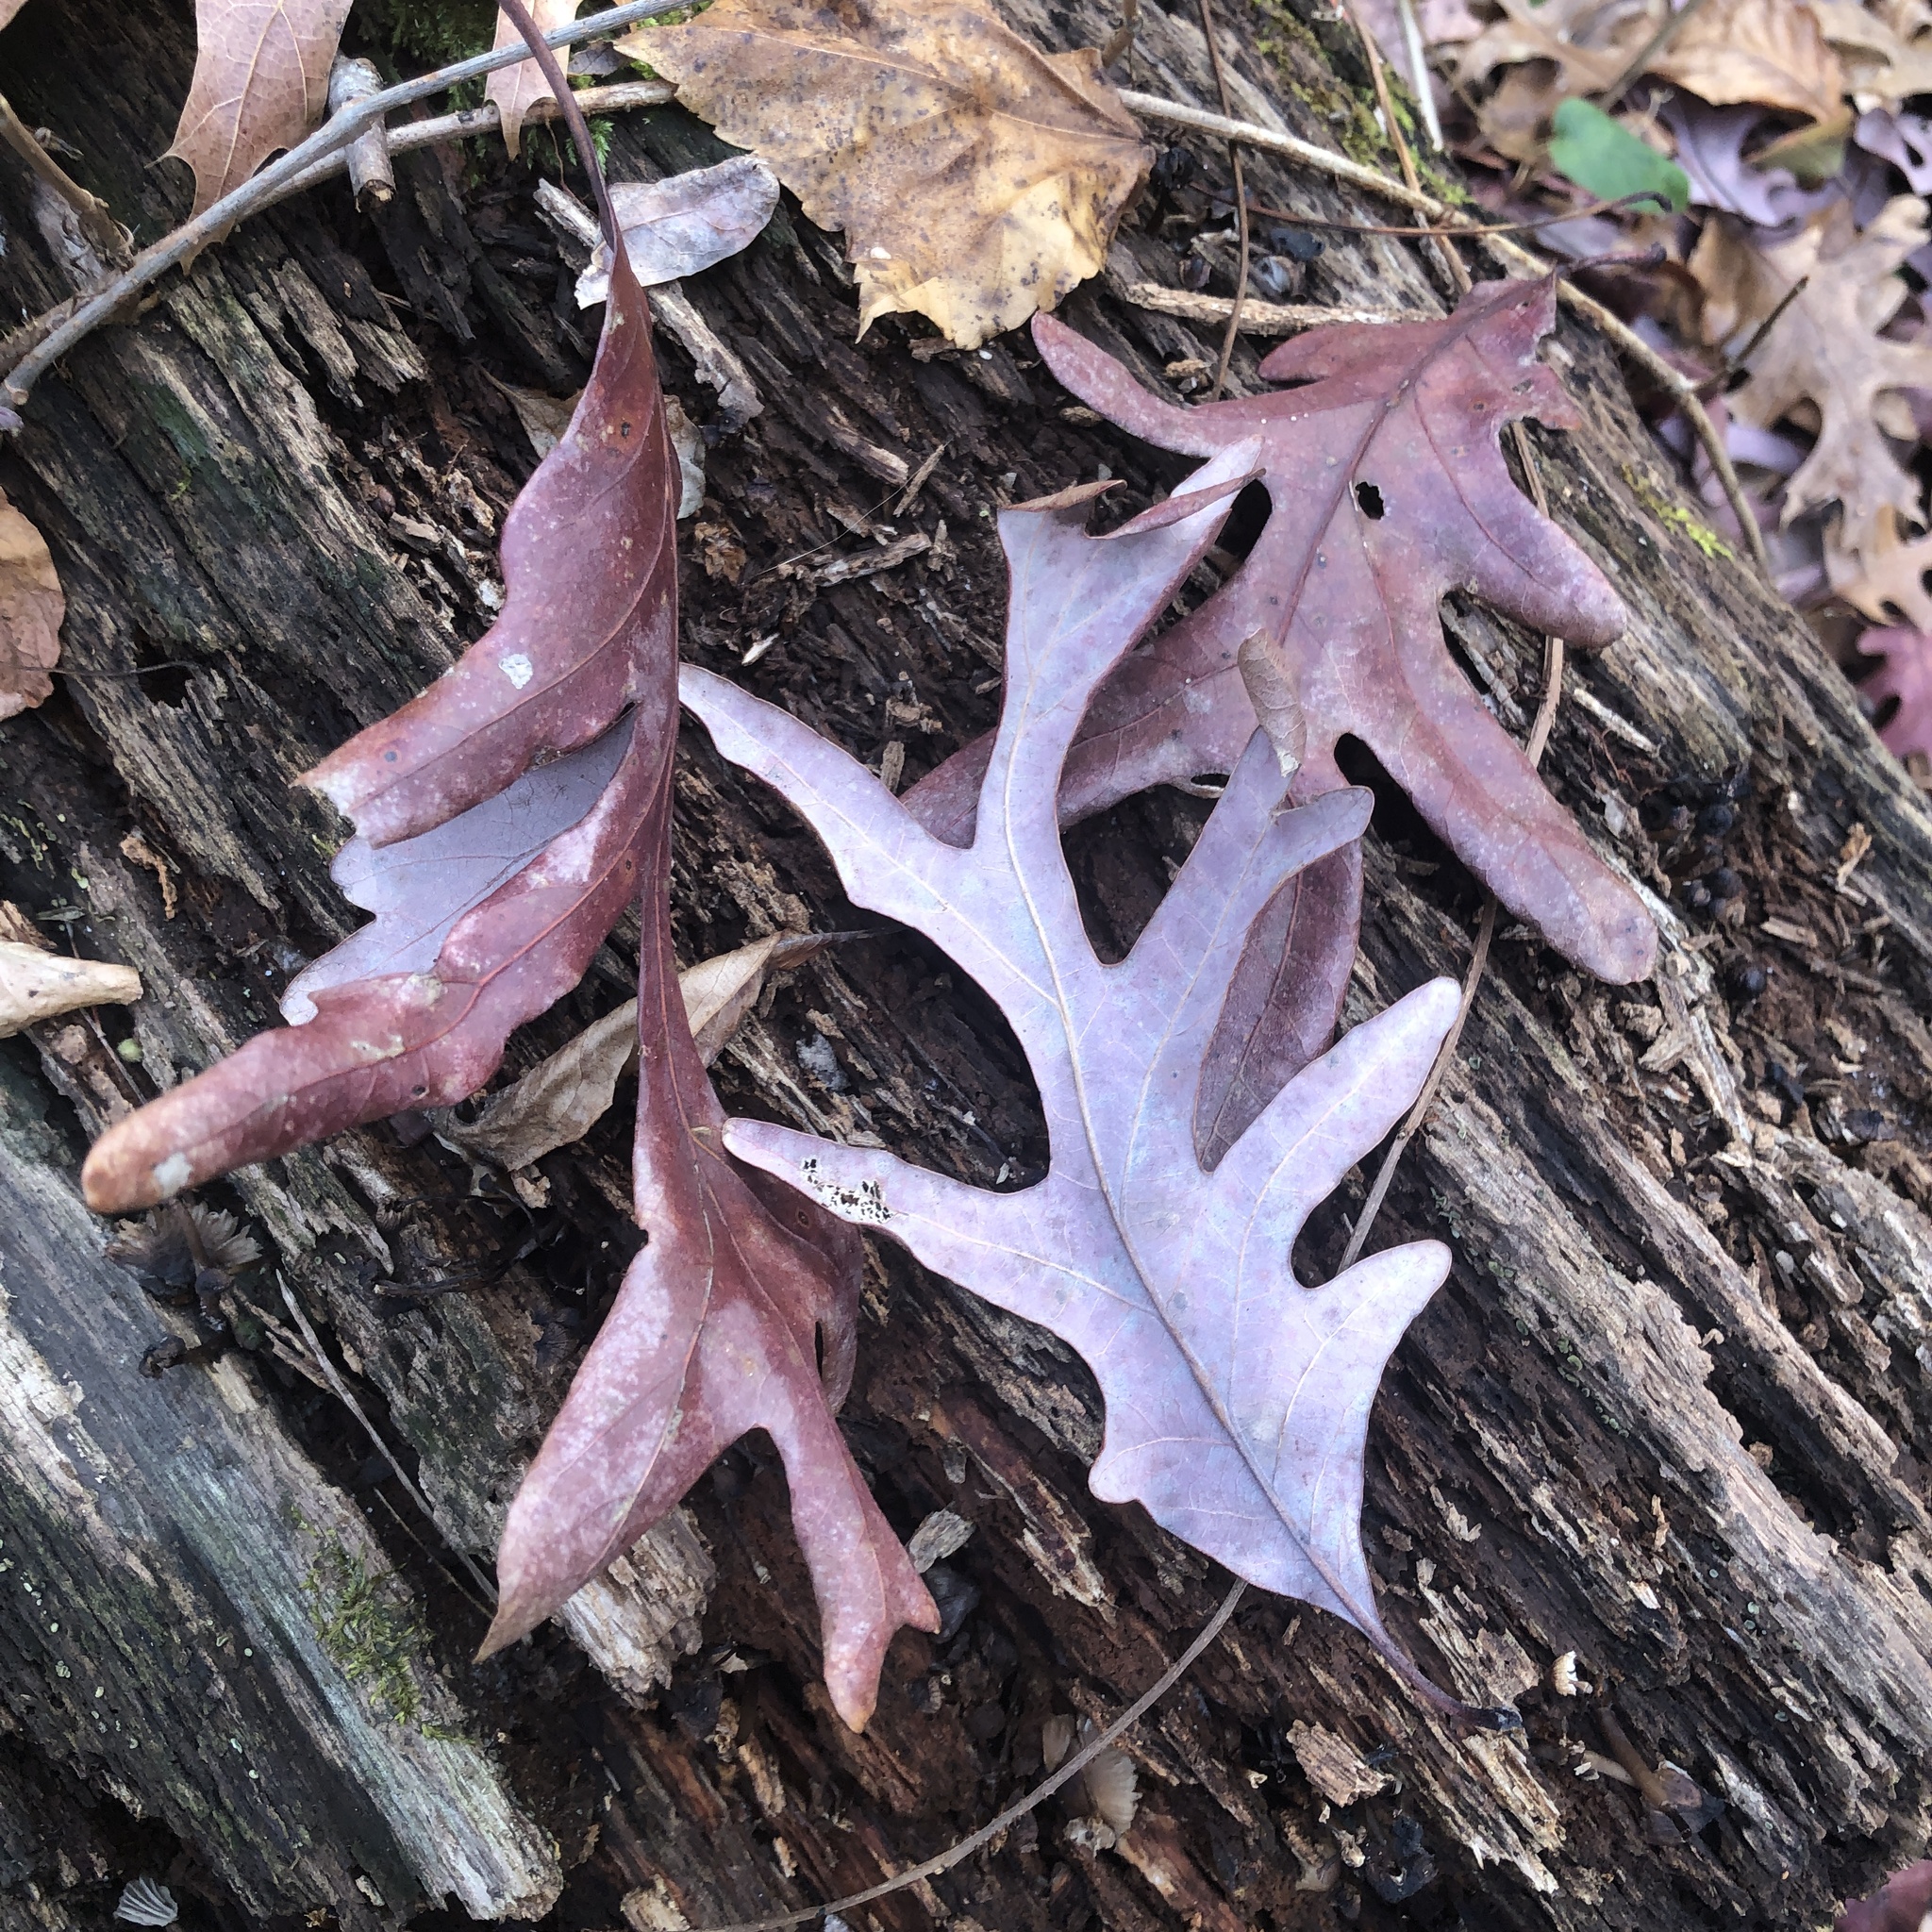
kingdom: Plantae
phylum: Tracheophyta
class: Magnoliopsida
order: Fagales
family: Fagaceae
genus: Quercus
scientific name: Quercus alba
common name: White oak
